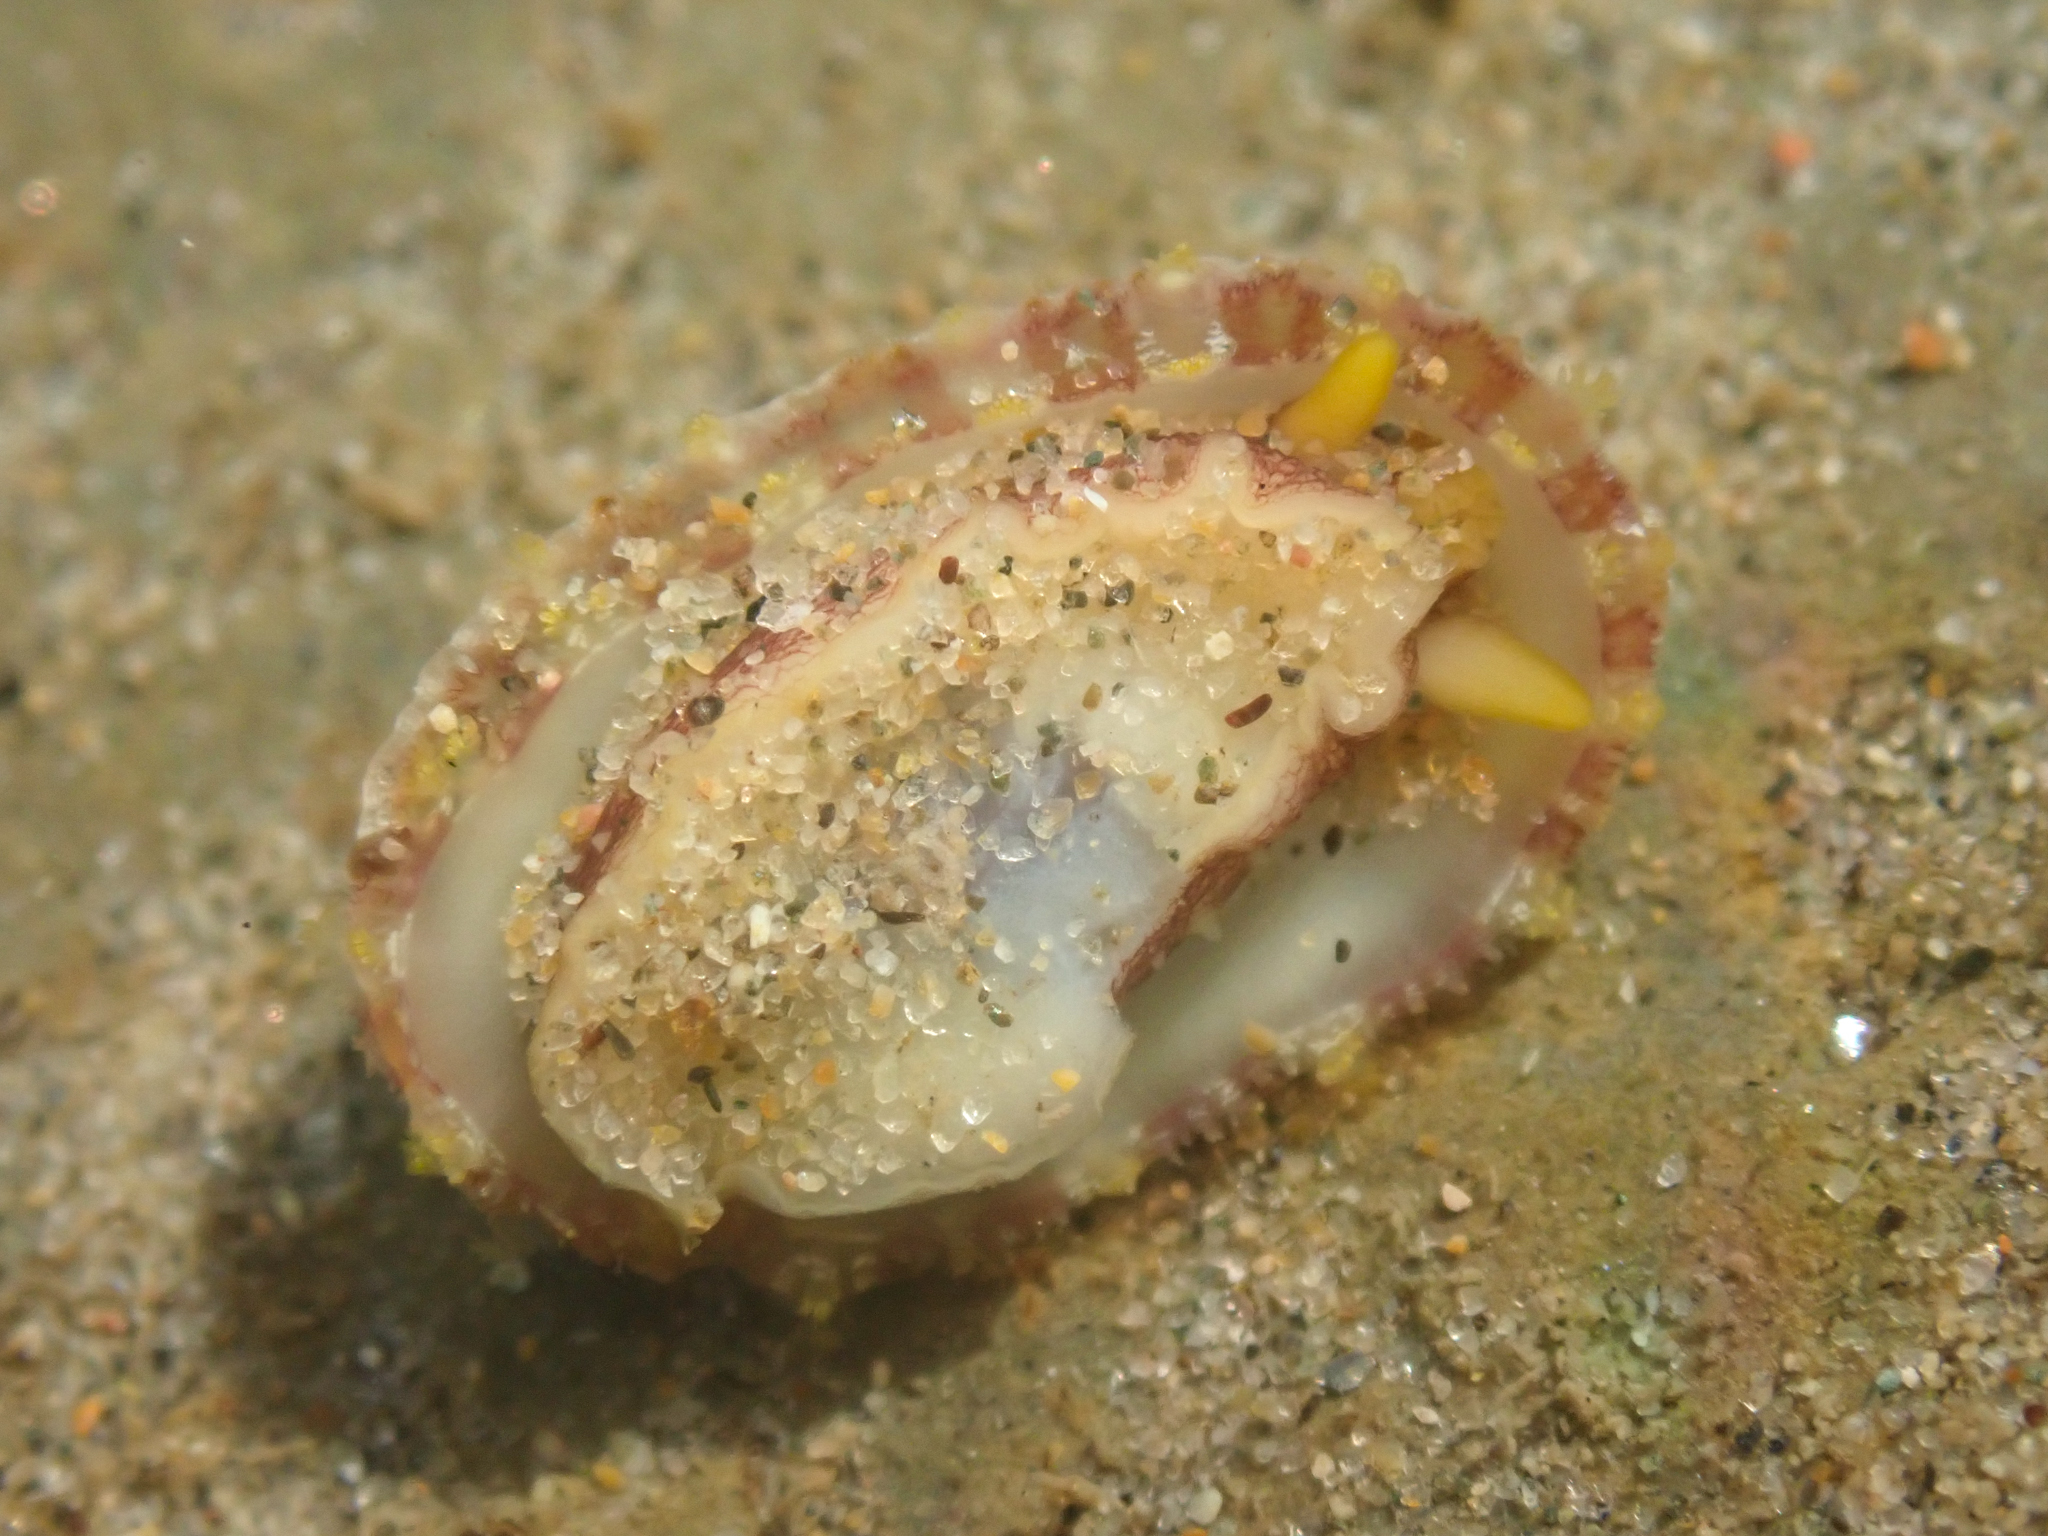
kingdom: Animalia
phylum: Mollusca
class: Gastropoda
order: Lepetellida
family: Fissurellidae
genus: Fissurella
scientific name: Fissurella volcano
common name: Volcano keyhole limpet
